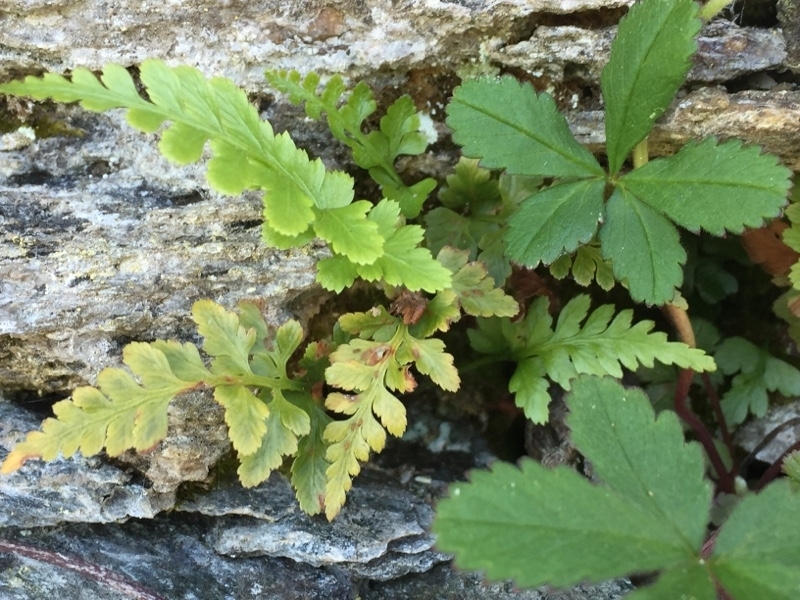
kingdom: Plantae
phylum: Tracheophyta
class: Polypodiopsida
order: Polypodiales
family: Aspleniaceae
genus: Asplenium
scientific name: Asplenium adiantum-nigrum
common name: Black spleenwort
